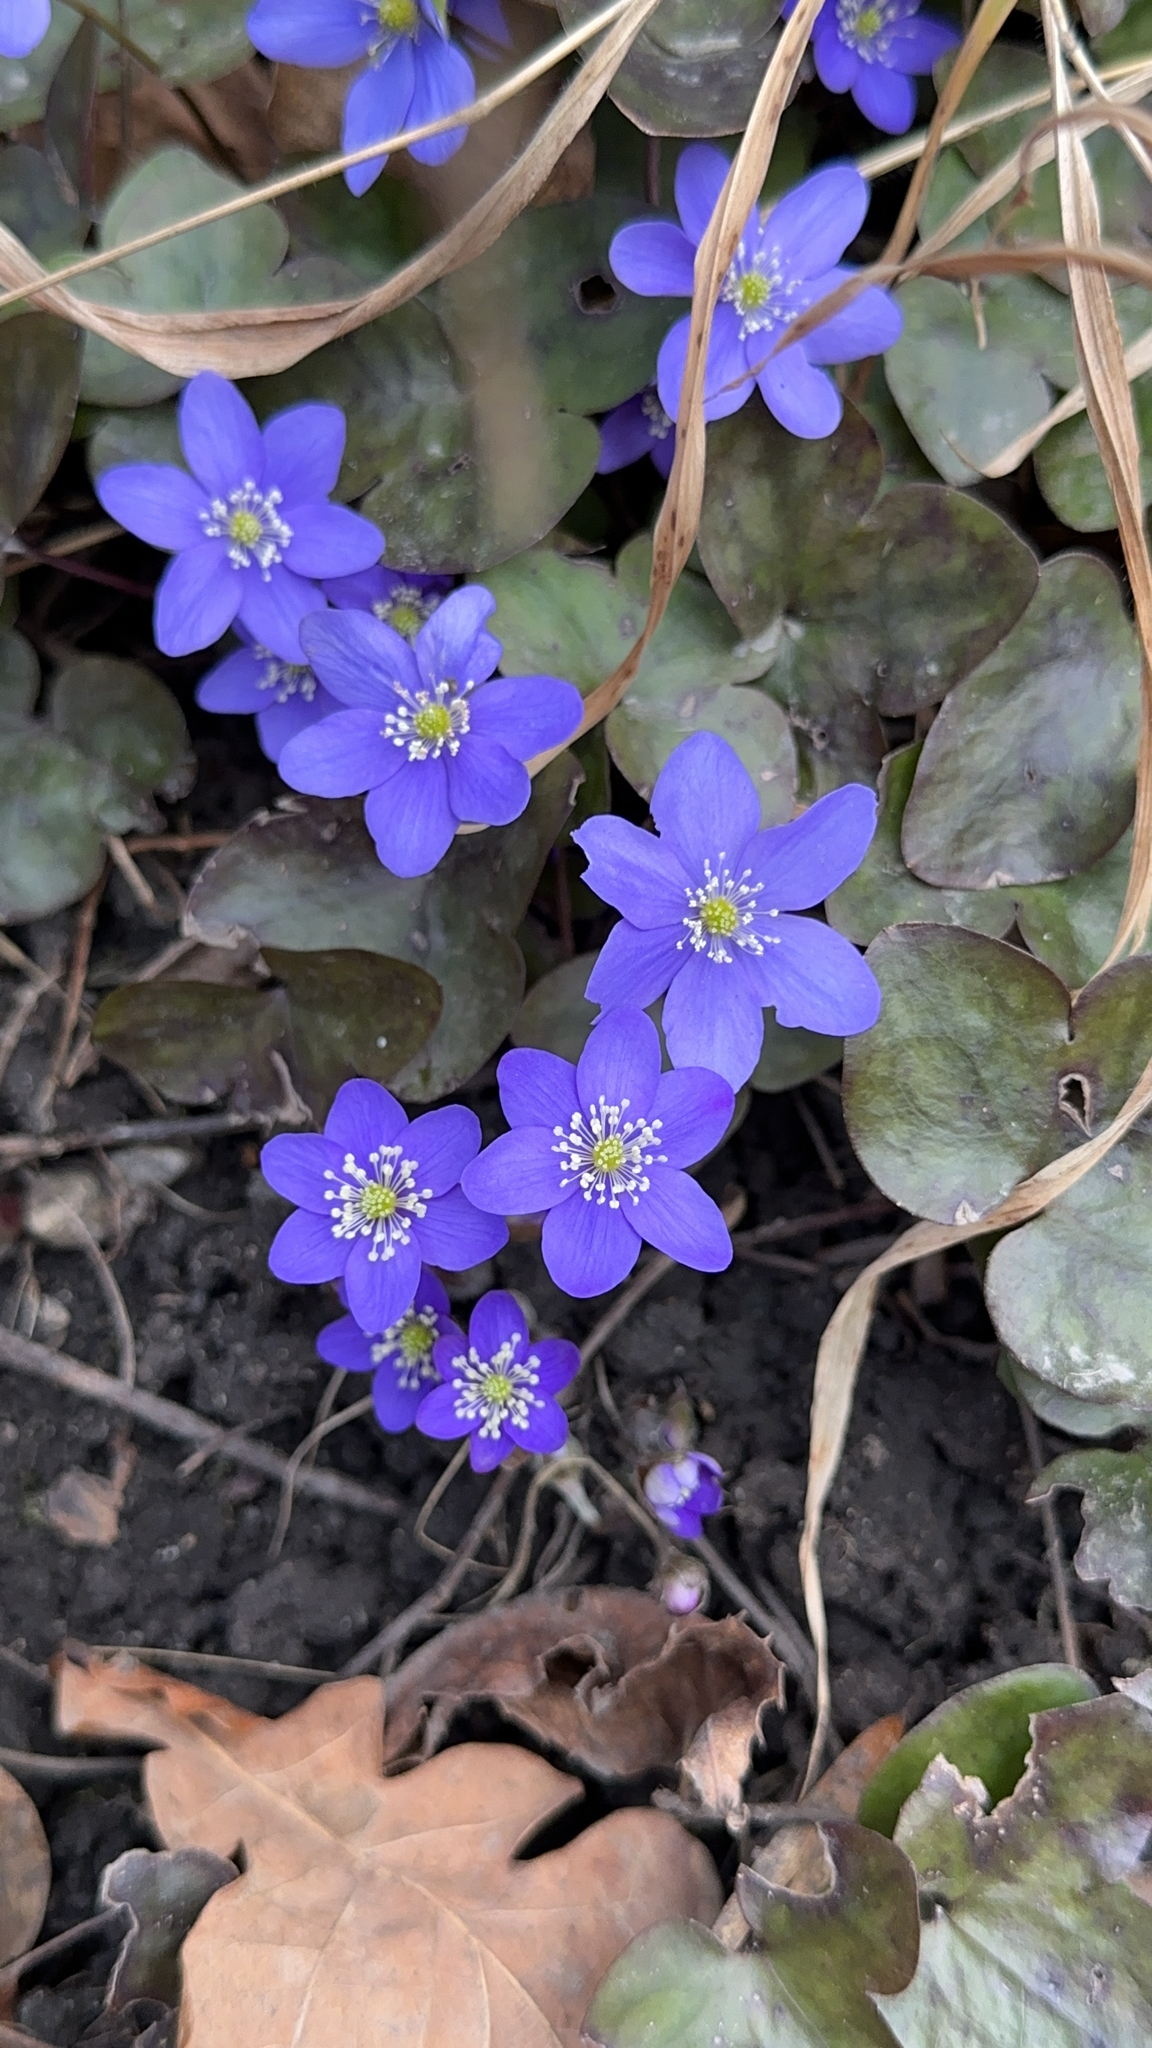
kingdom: Plantae
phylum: Tracheophyta
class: Magnoliopsida
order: Ranunculales
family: Ranunculaceae
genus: Hepatica
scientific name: Hepatica nobilis
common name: Liverleaf
